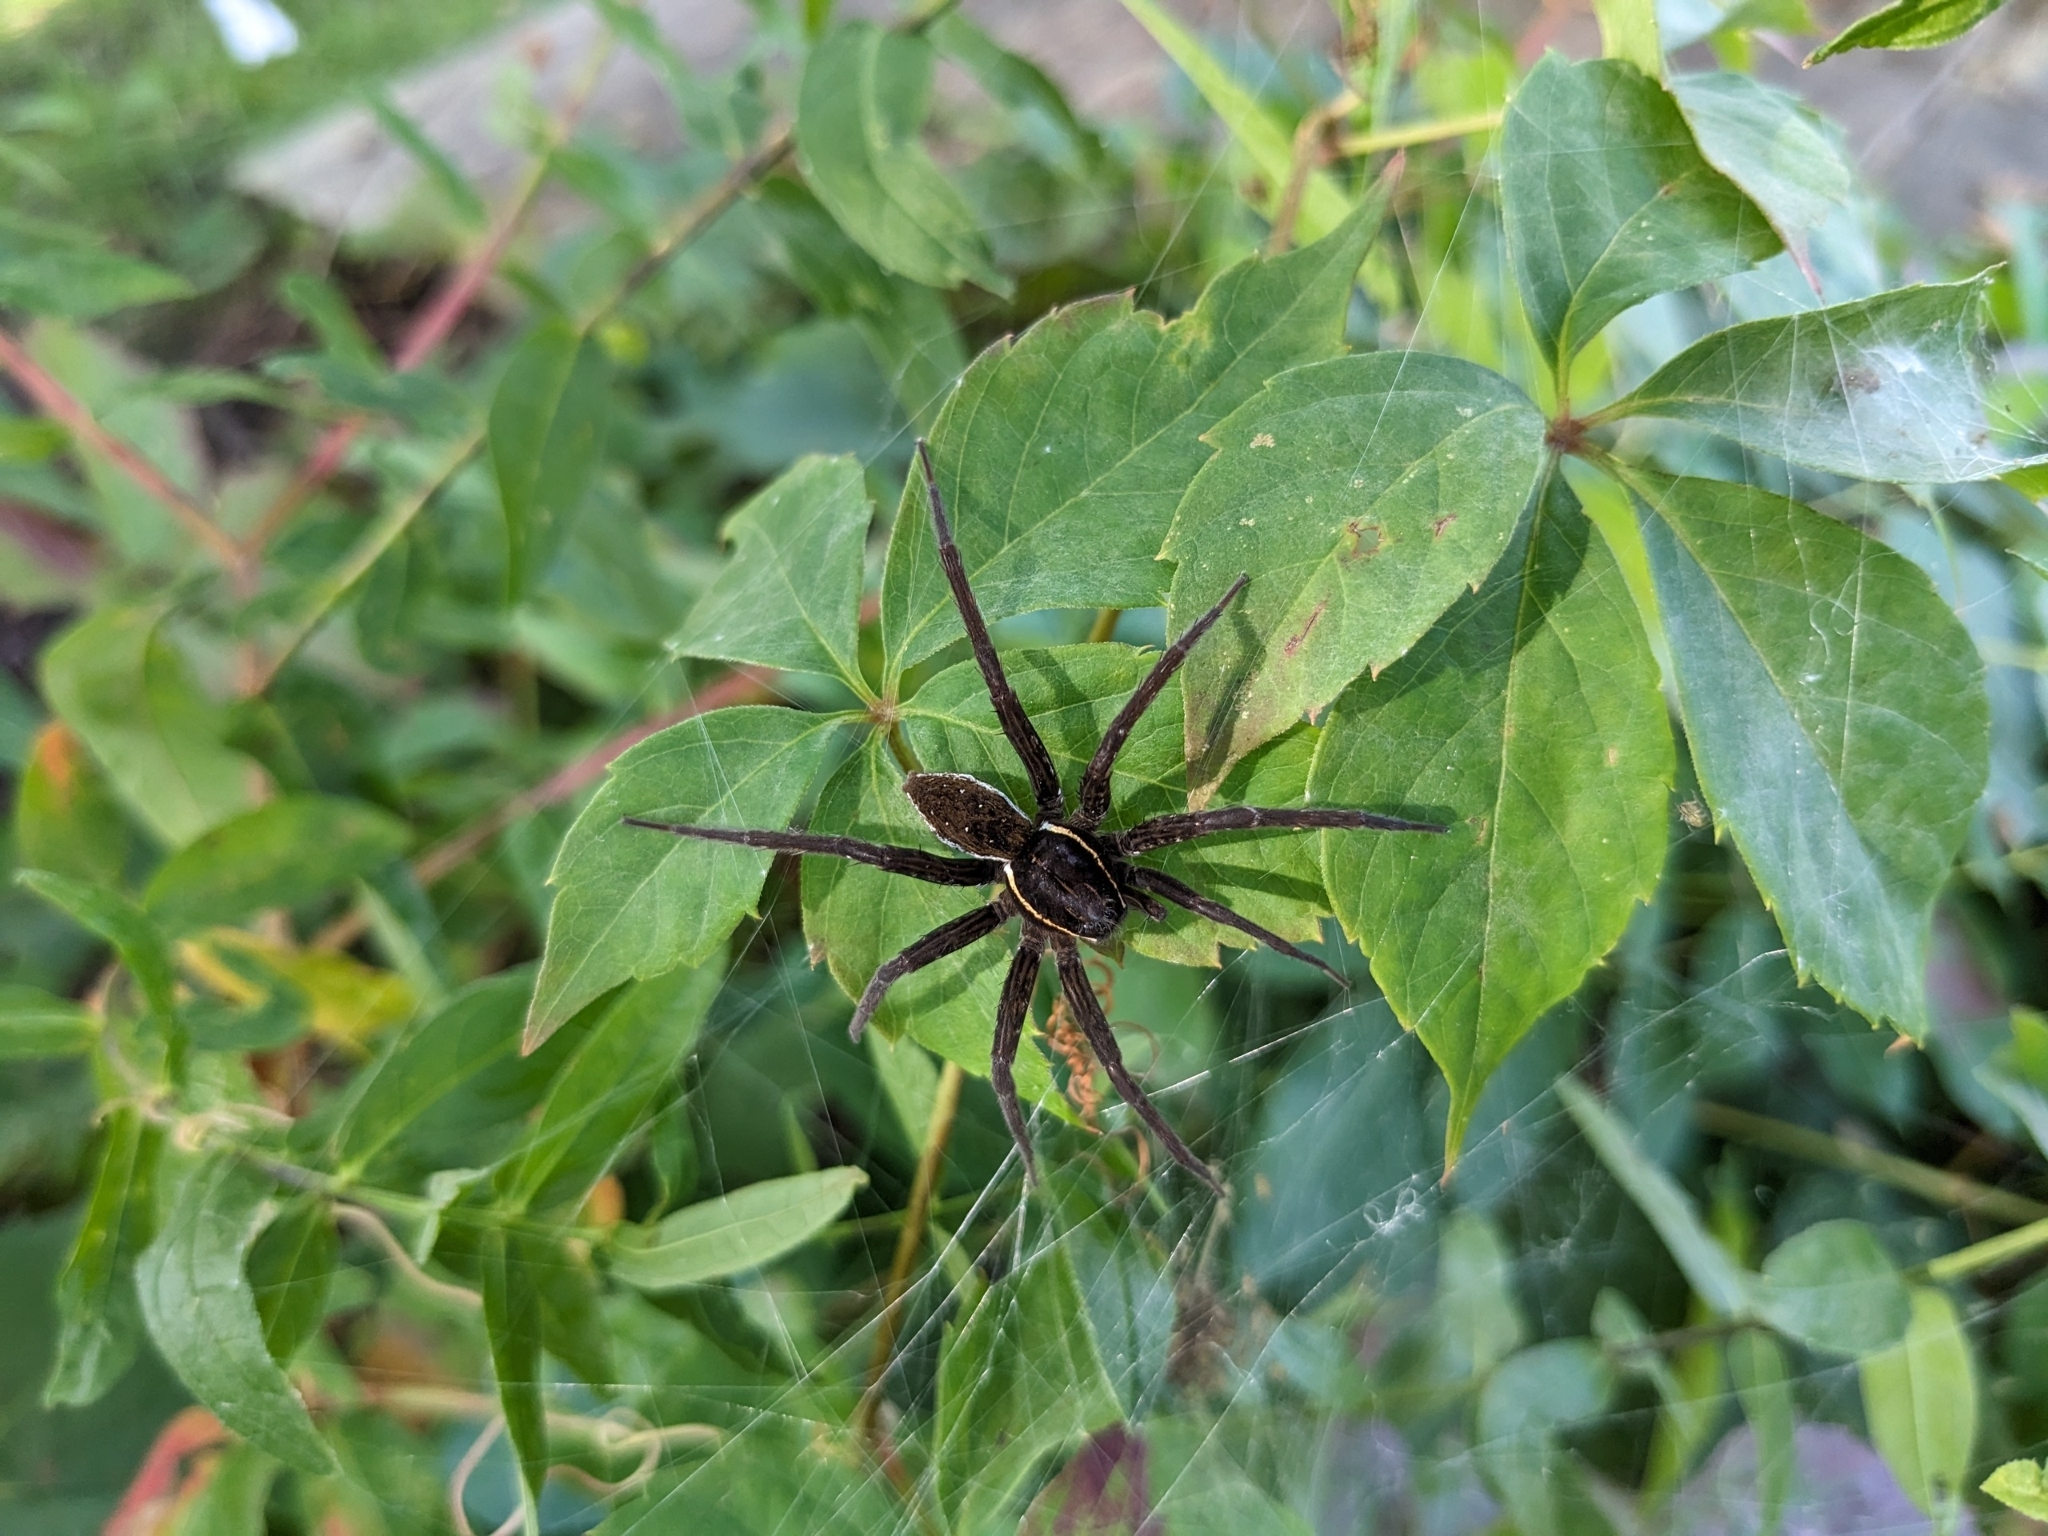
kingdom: Animalia
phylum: Arthropoda
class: Arachnida
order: Araneae
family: Pisauridae
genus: Dolomedes
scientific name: Dolomedes triton
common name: Six-spotted fishing spider
